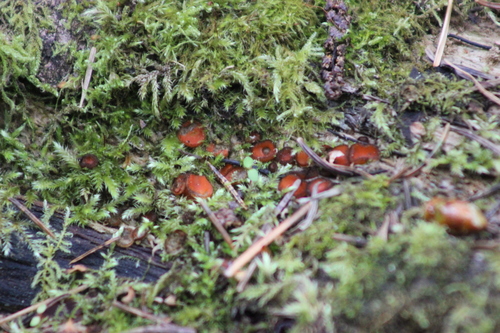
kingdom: Fungi
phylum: Ascomycota
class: Pezizomycetes
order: Pezizales
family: Pyronemataceae
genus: Scutellinia
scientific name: Scutellinia
